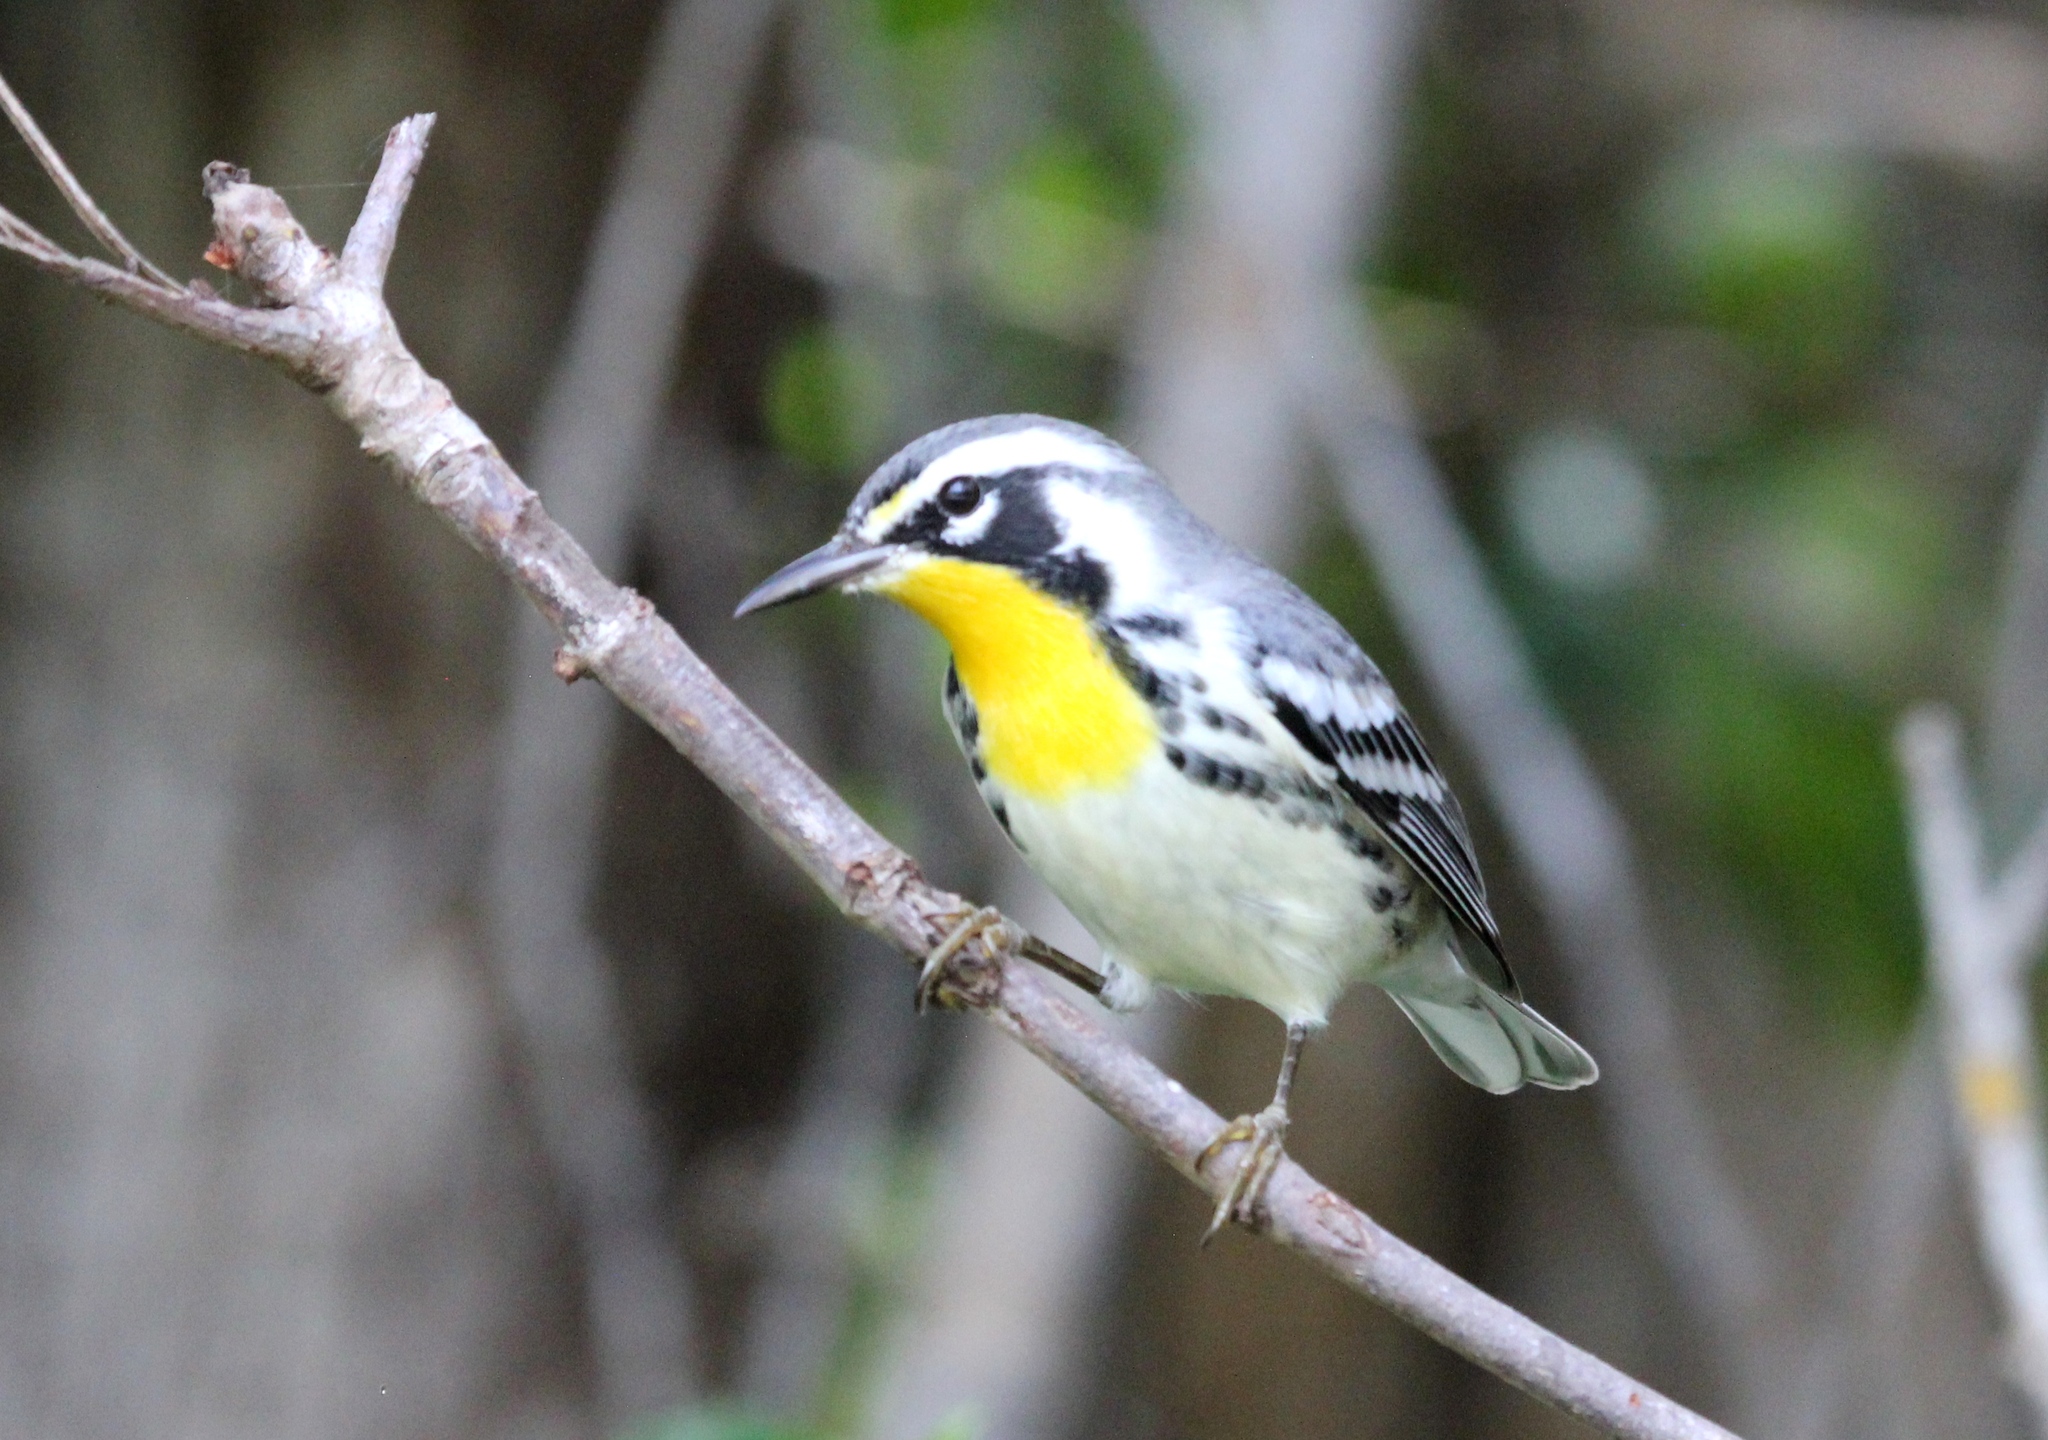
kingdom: Animalia
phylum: Chordata
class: Aves
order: Passeriformes
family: Parulidae
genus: Setophaga
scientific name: Setophaga dominica
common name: Yellow-throated warbler
